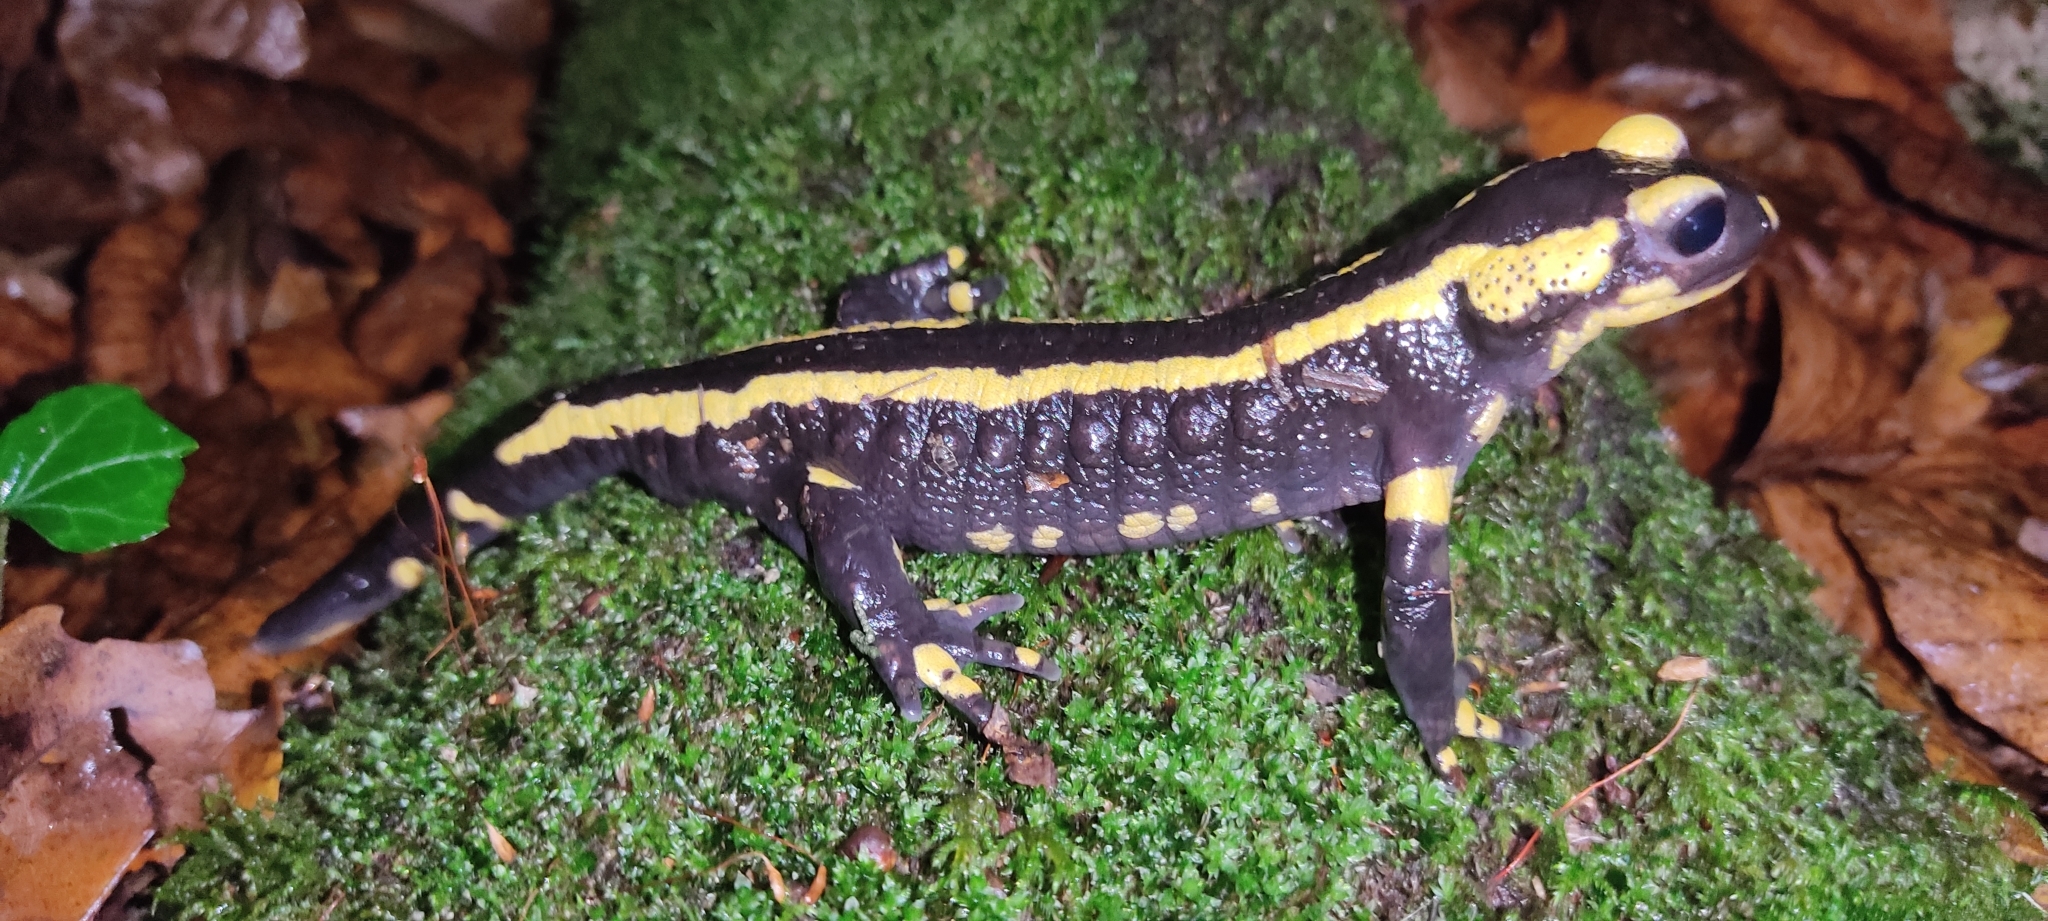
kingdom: Animalia
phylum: Chordata
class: Amphibia
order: Caudata
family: Salamandridae
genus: Salamandra
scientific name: Salamandra salamandra
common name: Fire salamander
